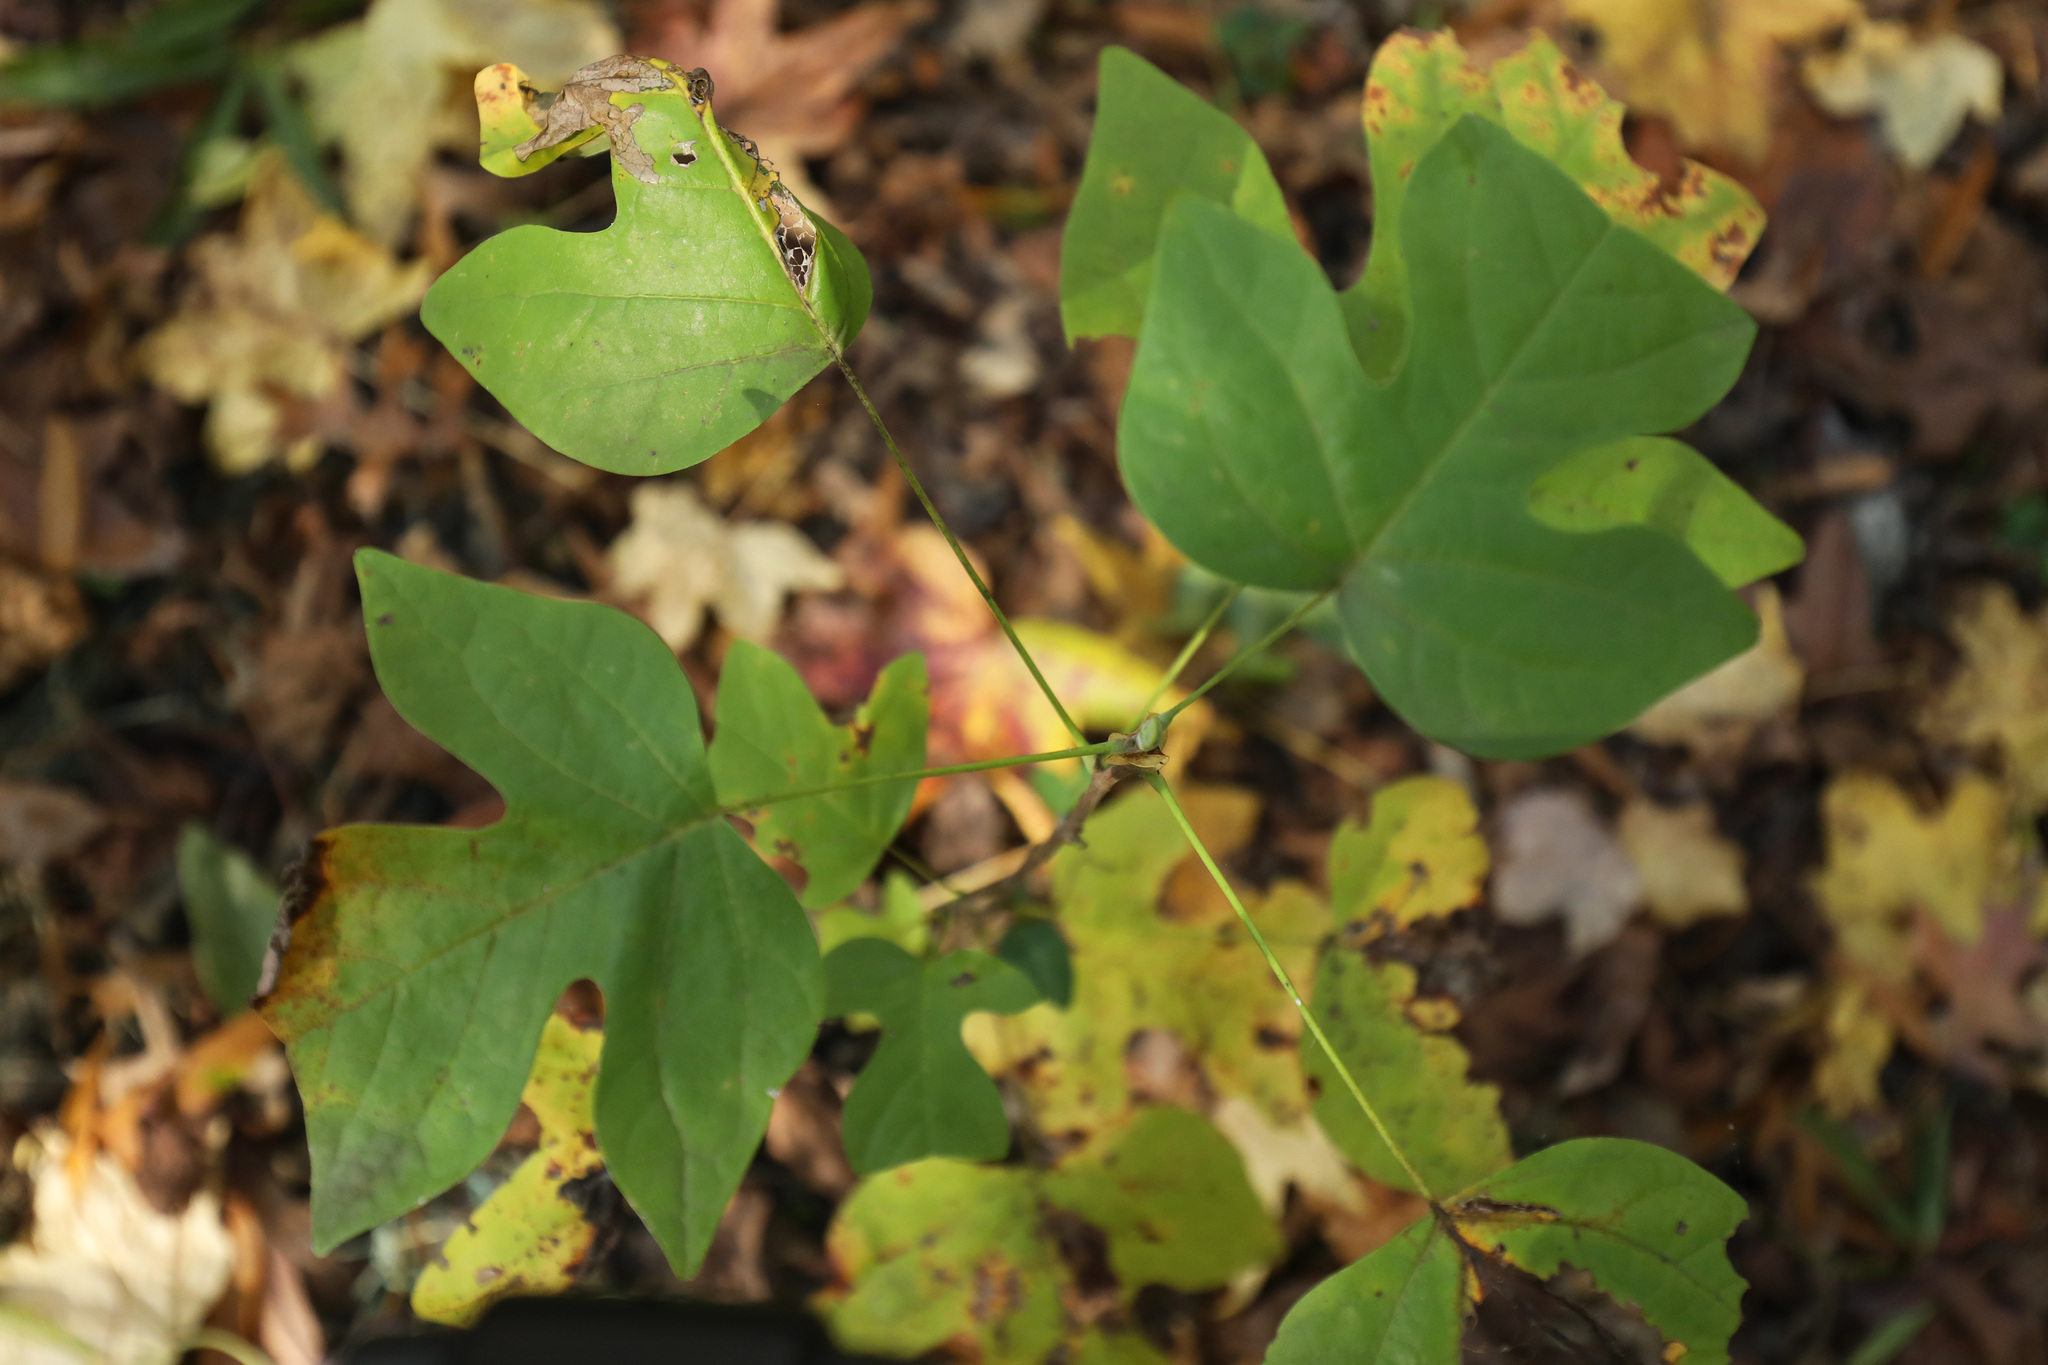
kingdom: Plantae
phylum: Tracheophyta
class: Magnoliopsida
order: Magnoliales
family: Magnoliaceae
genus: Liriodendron
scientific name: Liriodendron tulipifera
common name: Tulip tree
